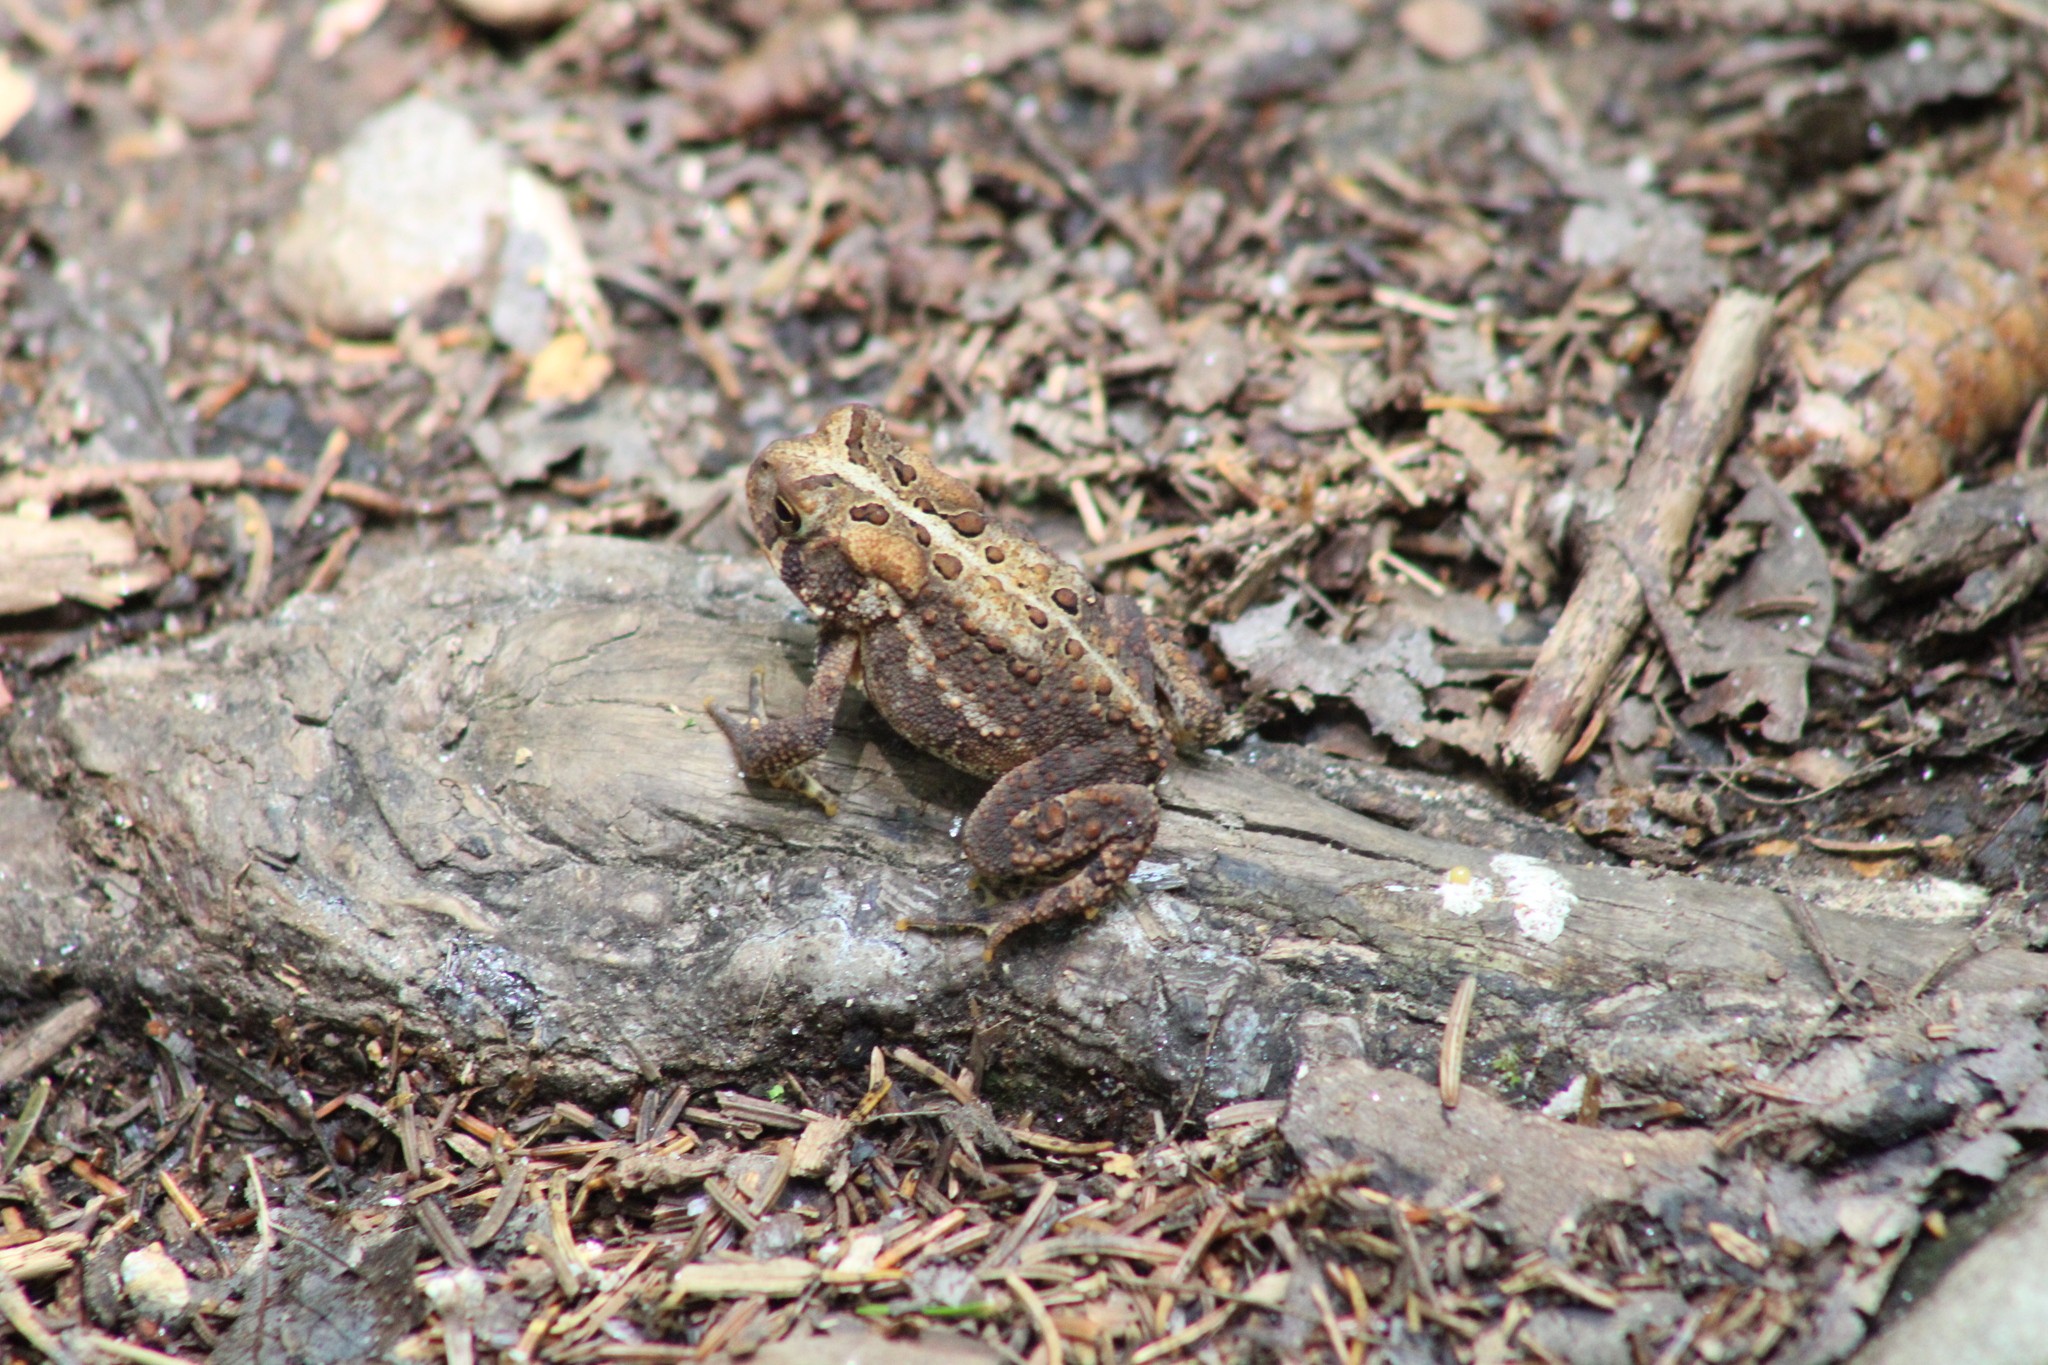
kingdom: Animalia
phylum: Chordata
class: Amphibia
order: Anura
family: Bufonidae
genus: Anaxyrus
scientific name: Anaxyrus americanus
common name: American toad
